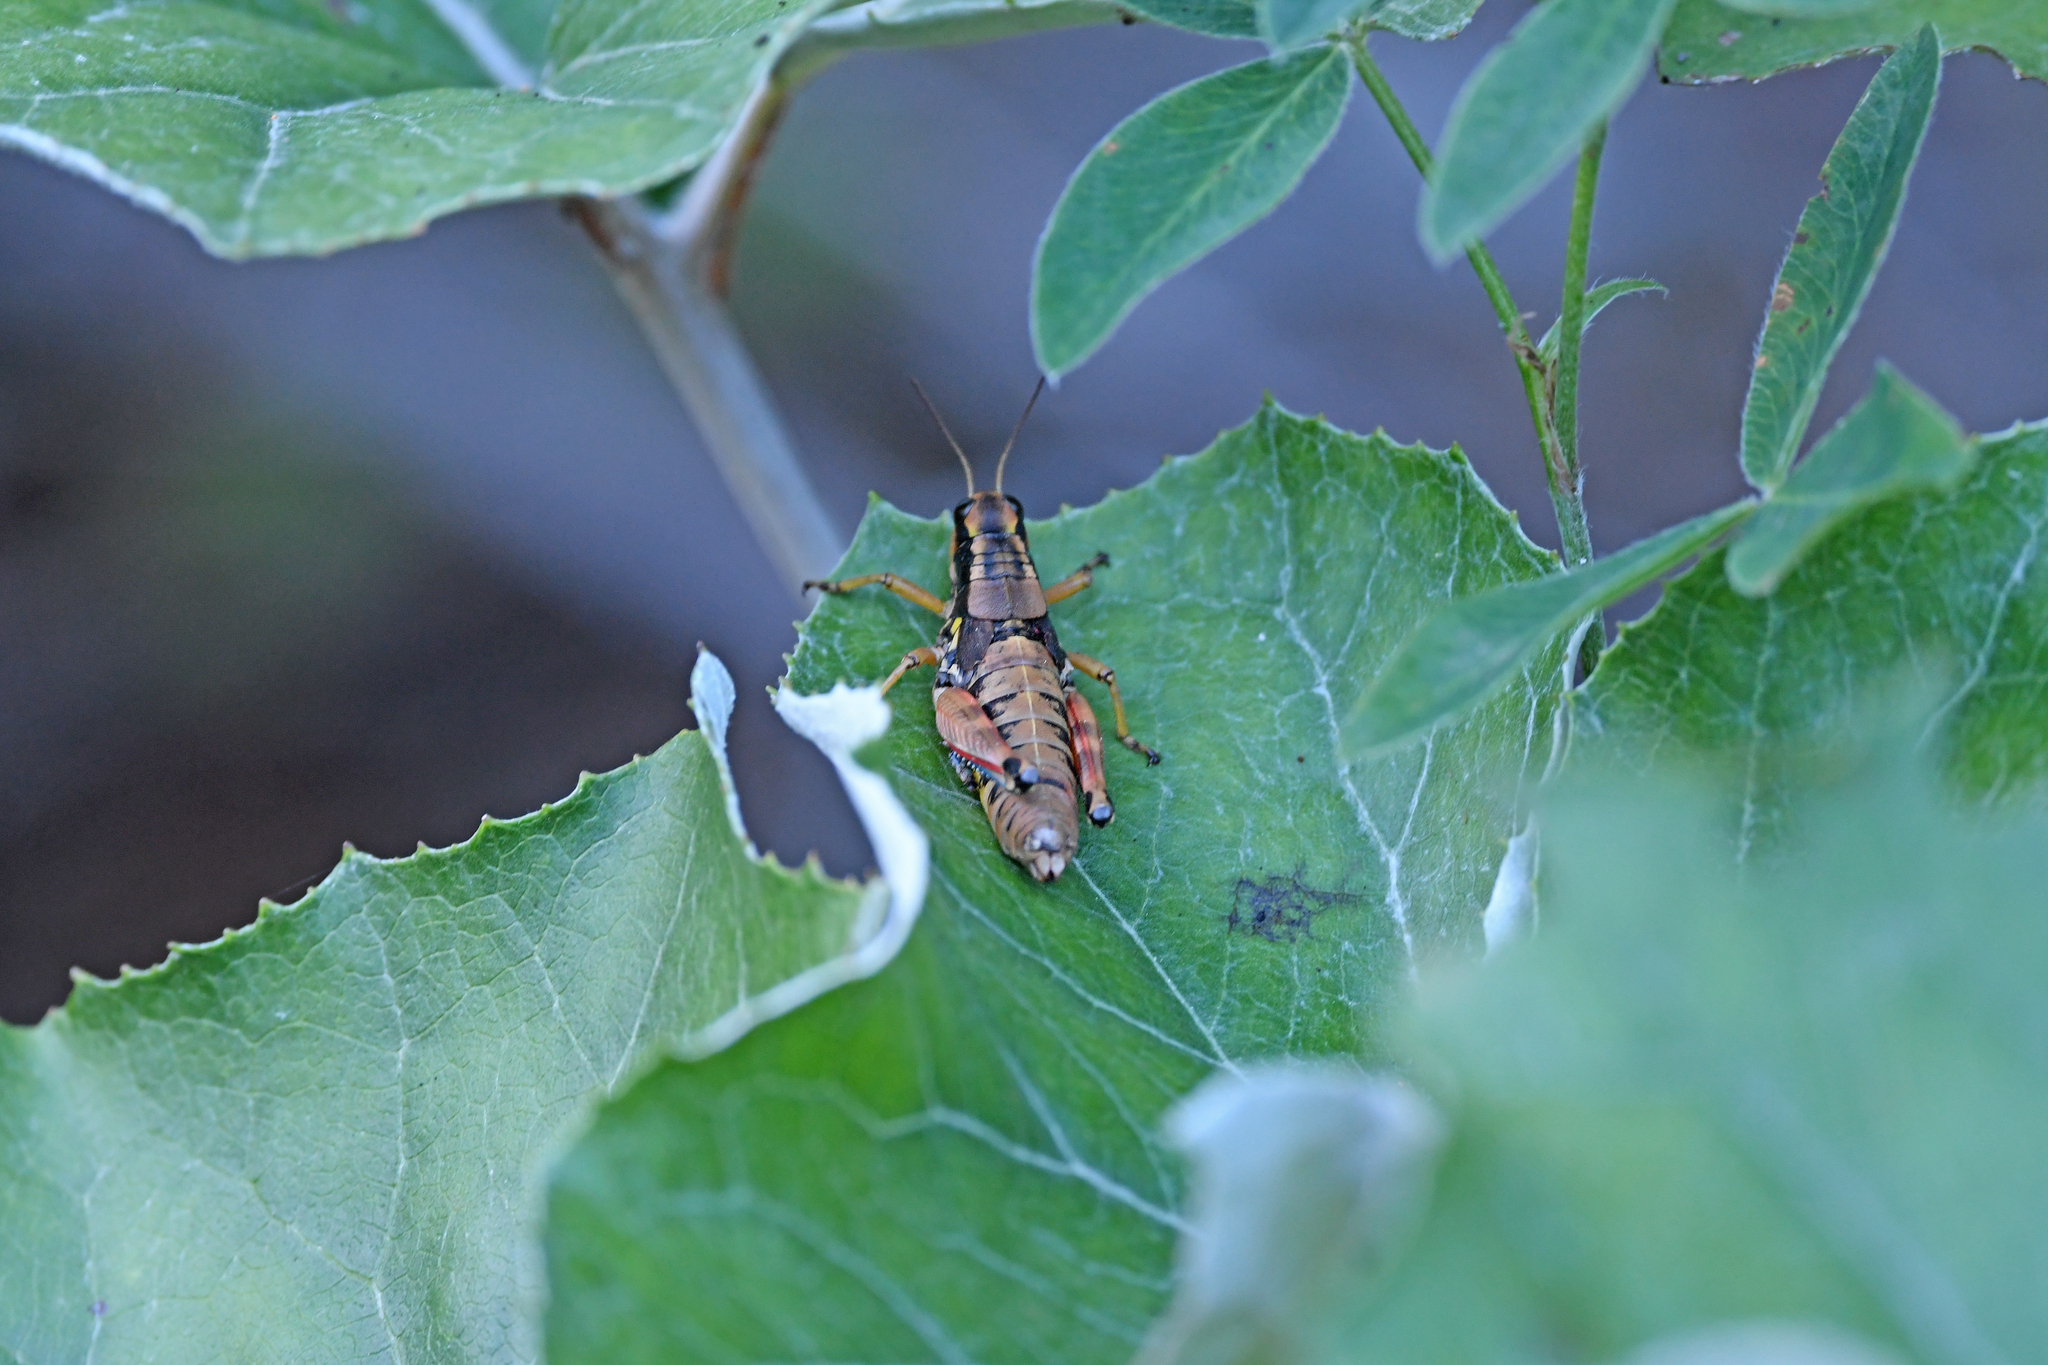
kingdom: Animalia
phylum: Arthropoda
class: Insecta
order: Orthoptera
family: Acrididae
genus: Podisma
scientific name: Podisma pedestris
